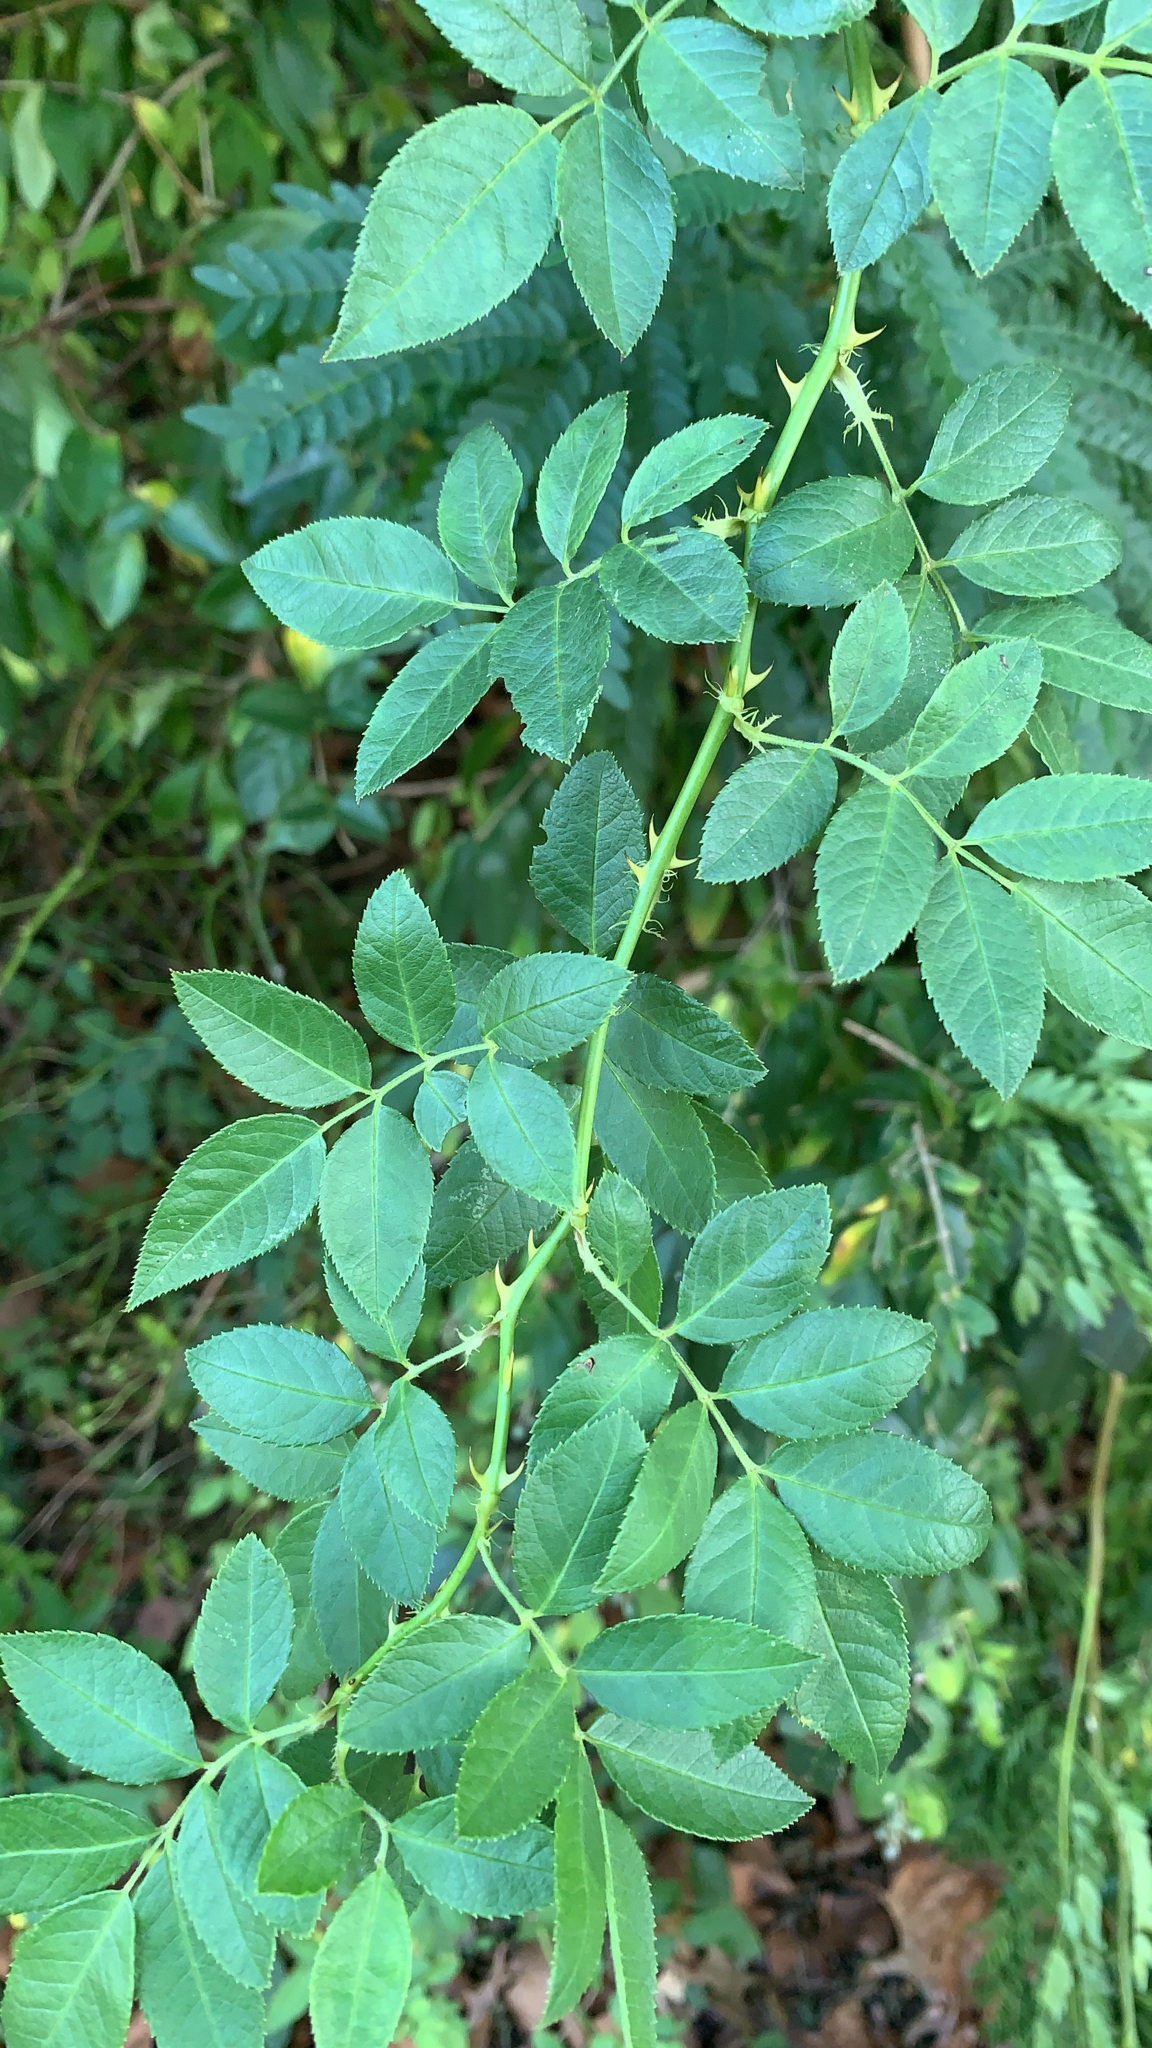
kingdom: Plantae
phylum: Tracheophyta
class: Magnoliopsida
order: Rosales
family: Rosaceae
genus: Rosa
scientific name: Rosa multiflora
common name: Multiflora rose
